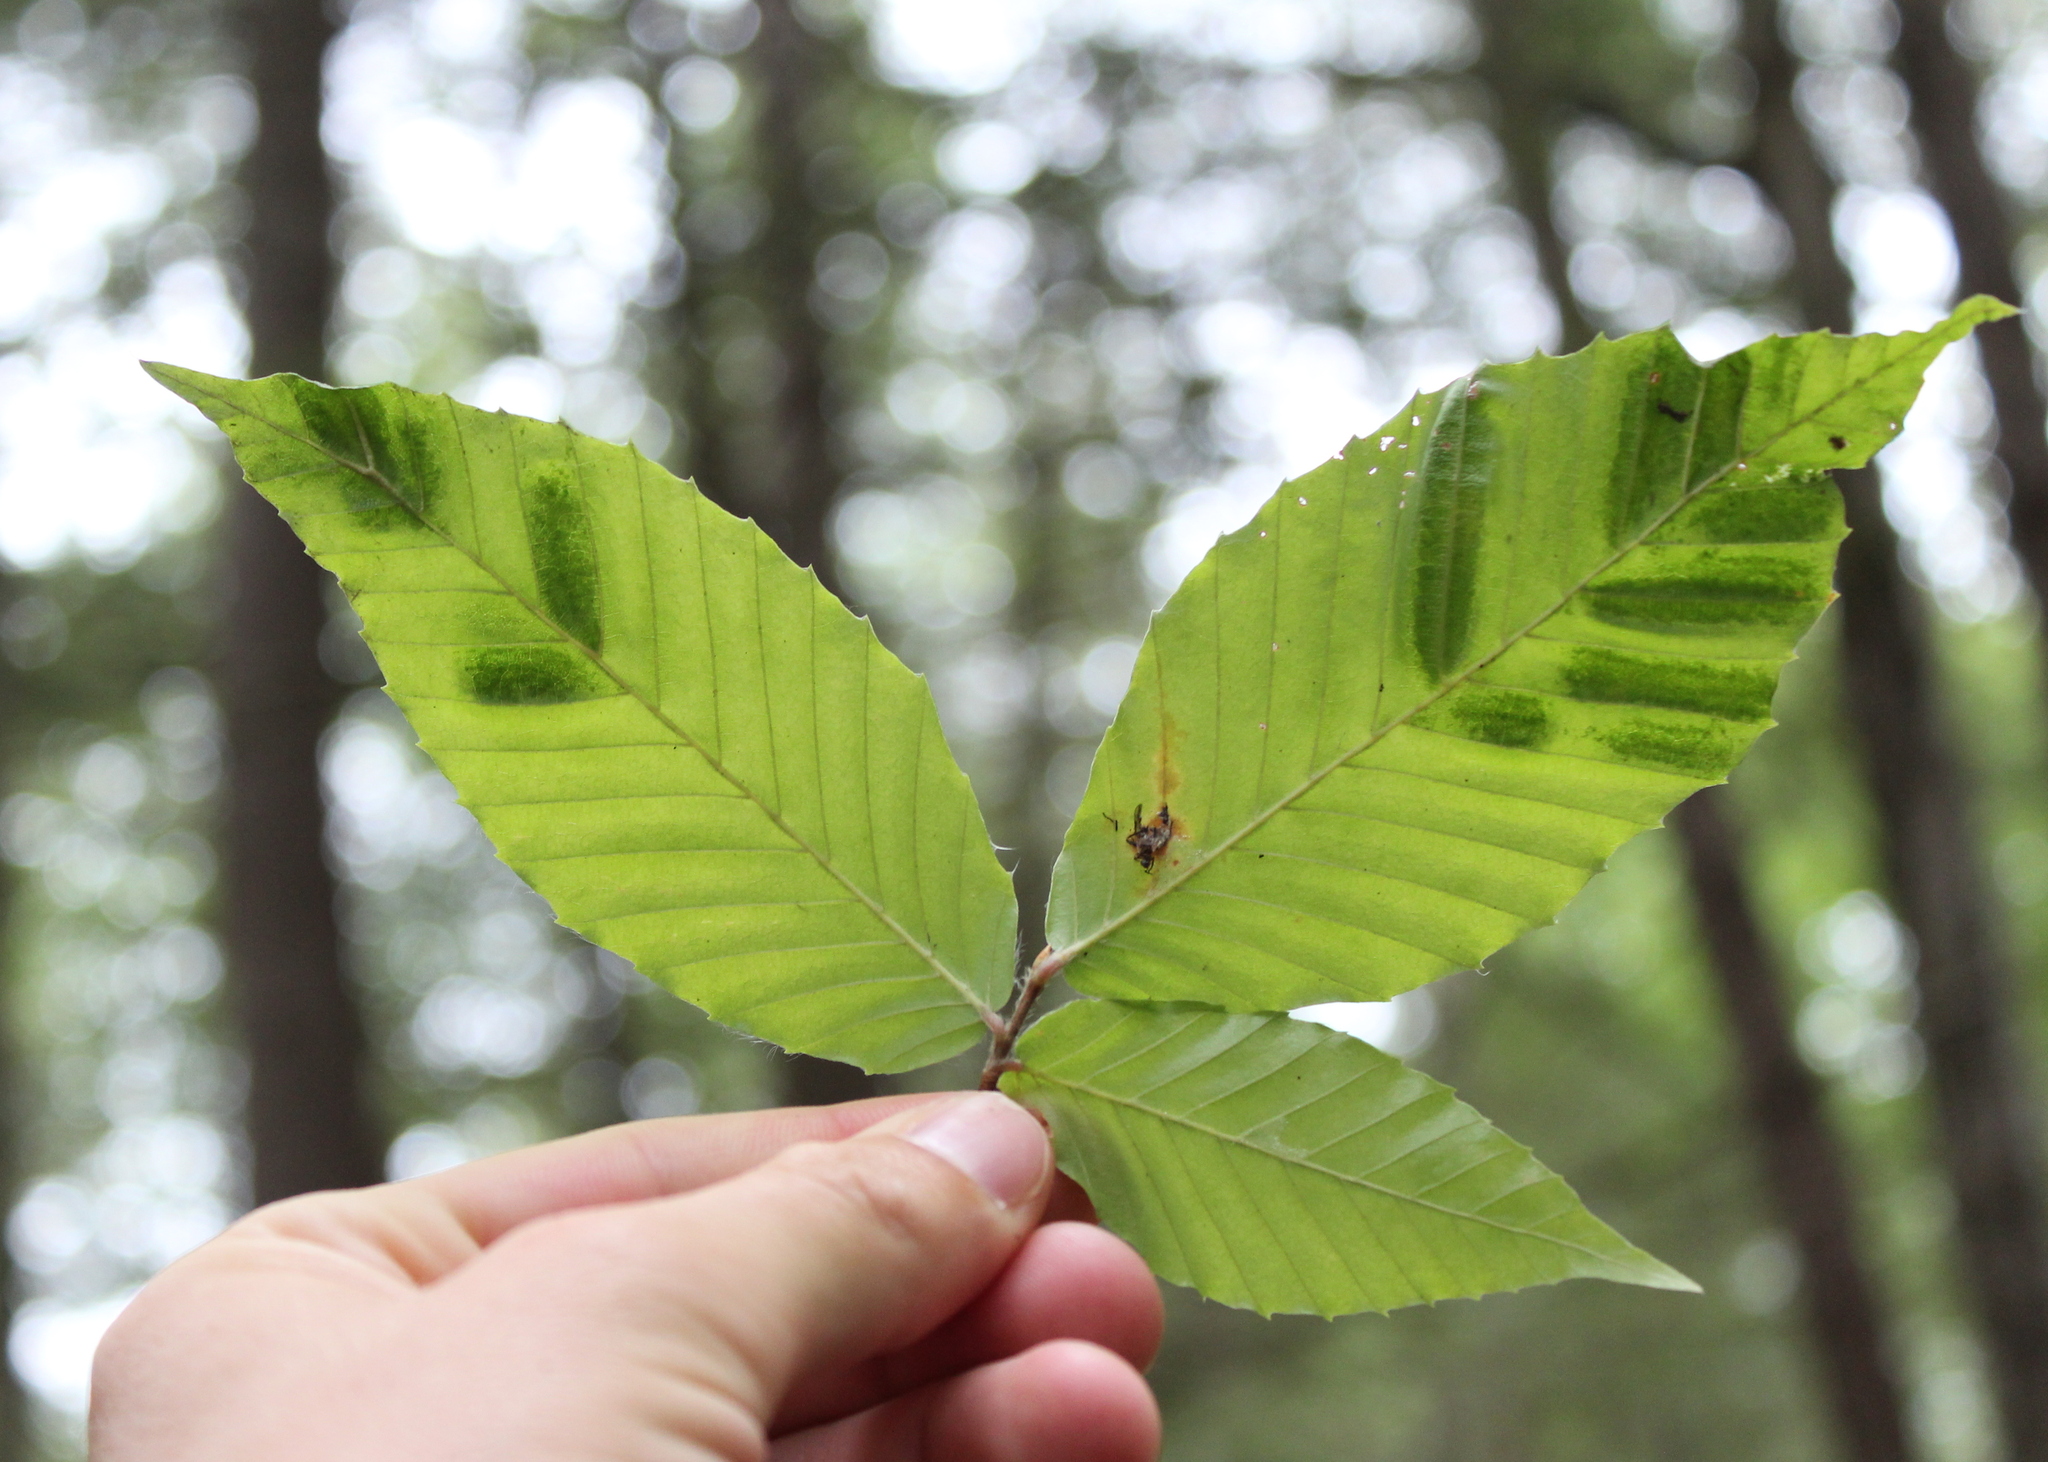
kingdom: Animalia
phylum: Nematoda
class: Chromadorea
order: Rhabditida
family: Anguinidae
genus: Litylenchus
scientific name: Litylenchus crenatae
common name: Beech leaf disease
